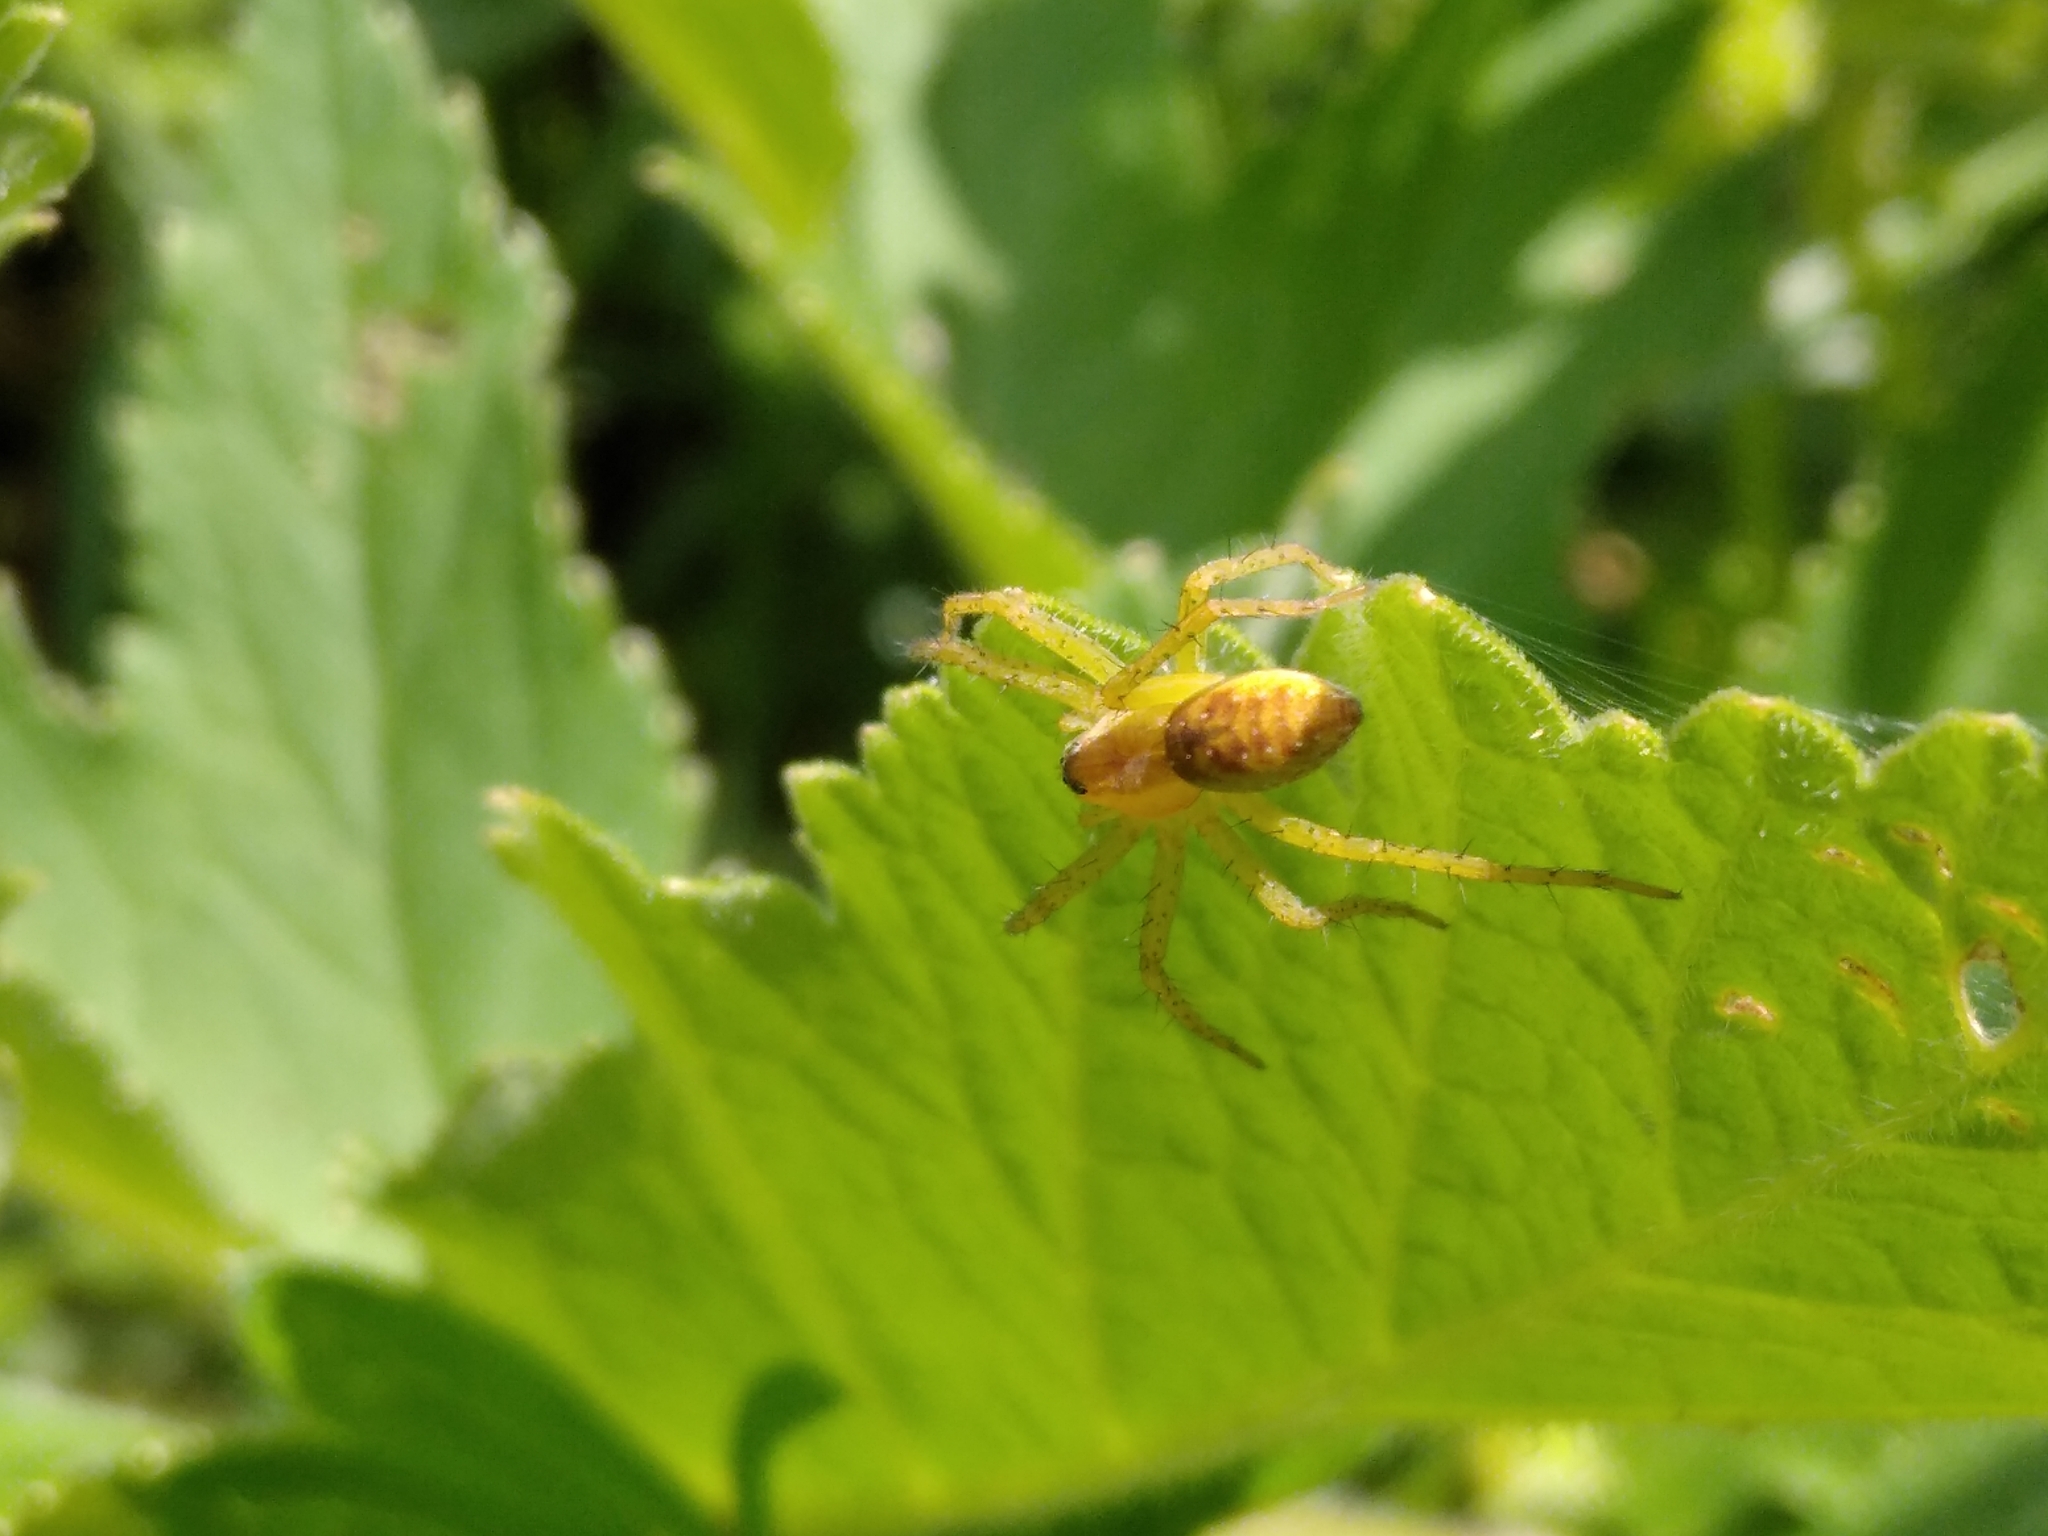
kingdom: Animalia
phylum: Arthropoda
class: Arachnida
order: Araneae
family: Pisauridae
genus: Dolomedes
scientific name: Dolomedes fimbriatus
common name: Raft spider
